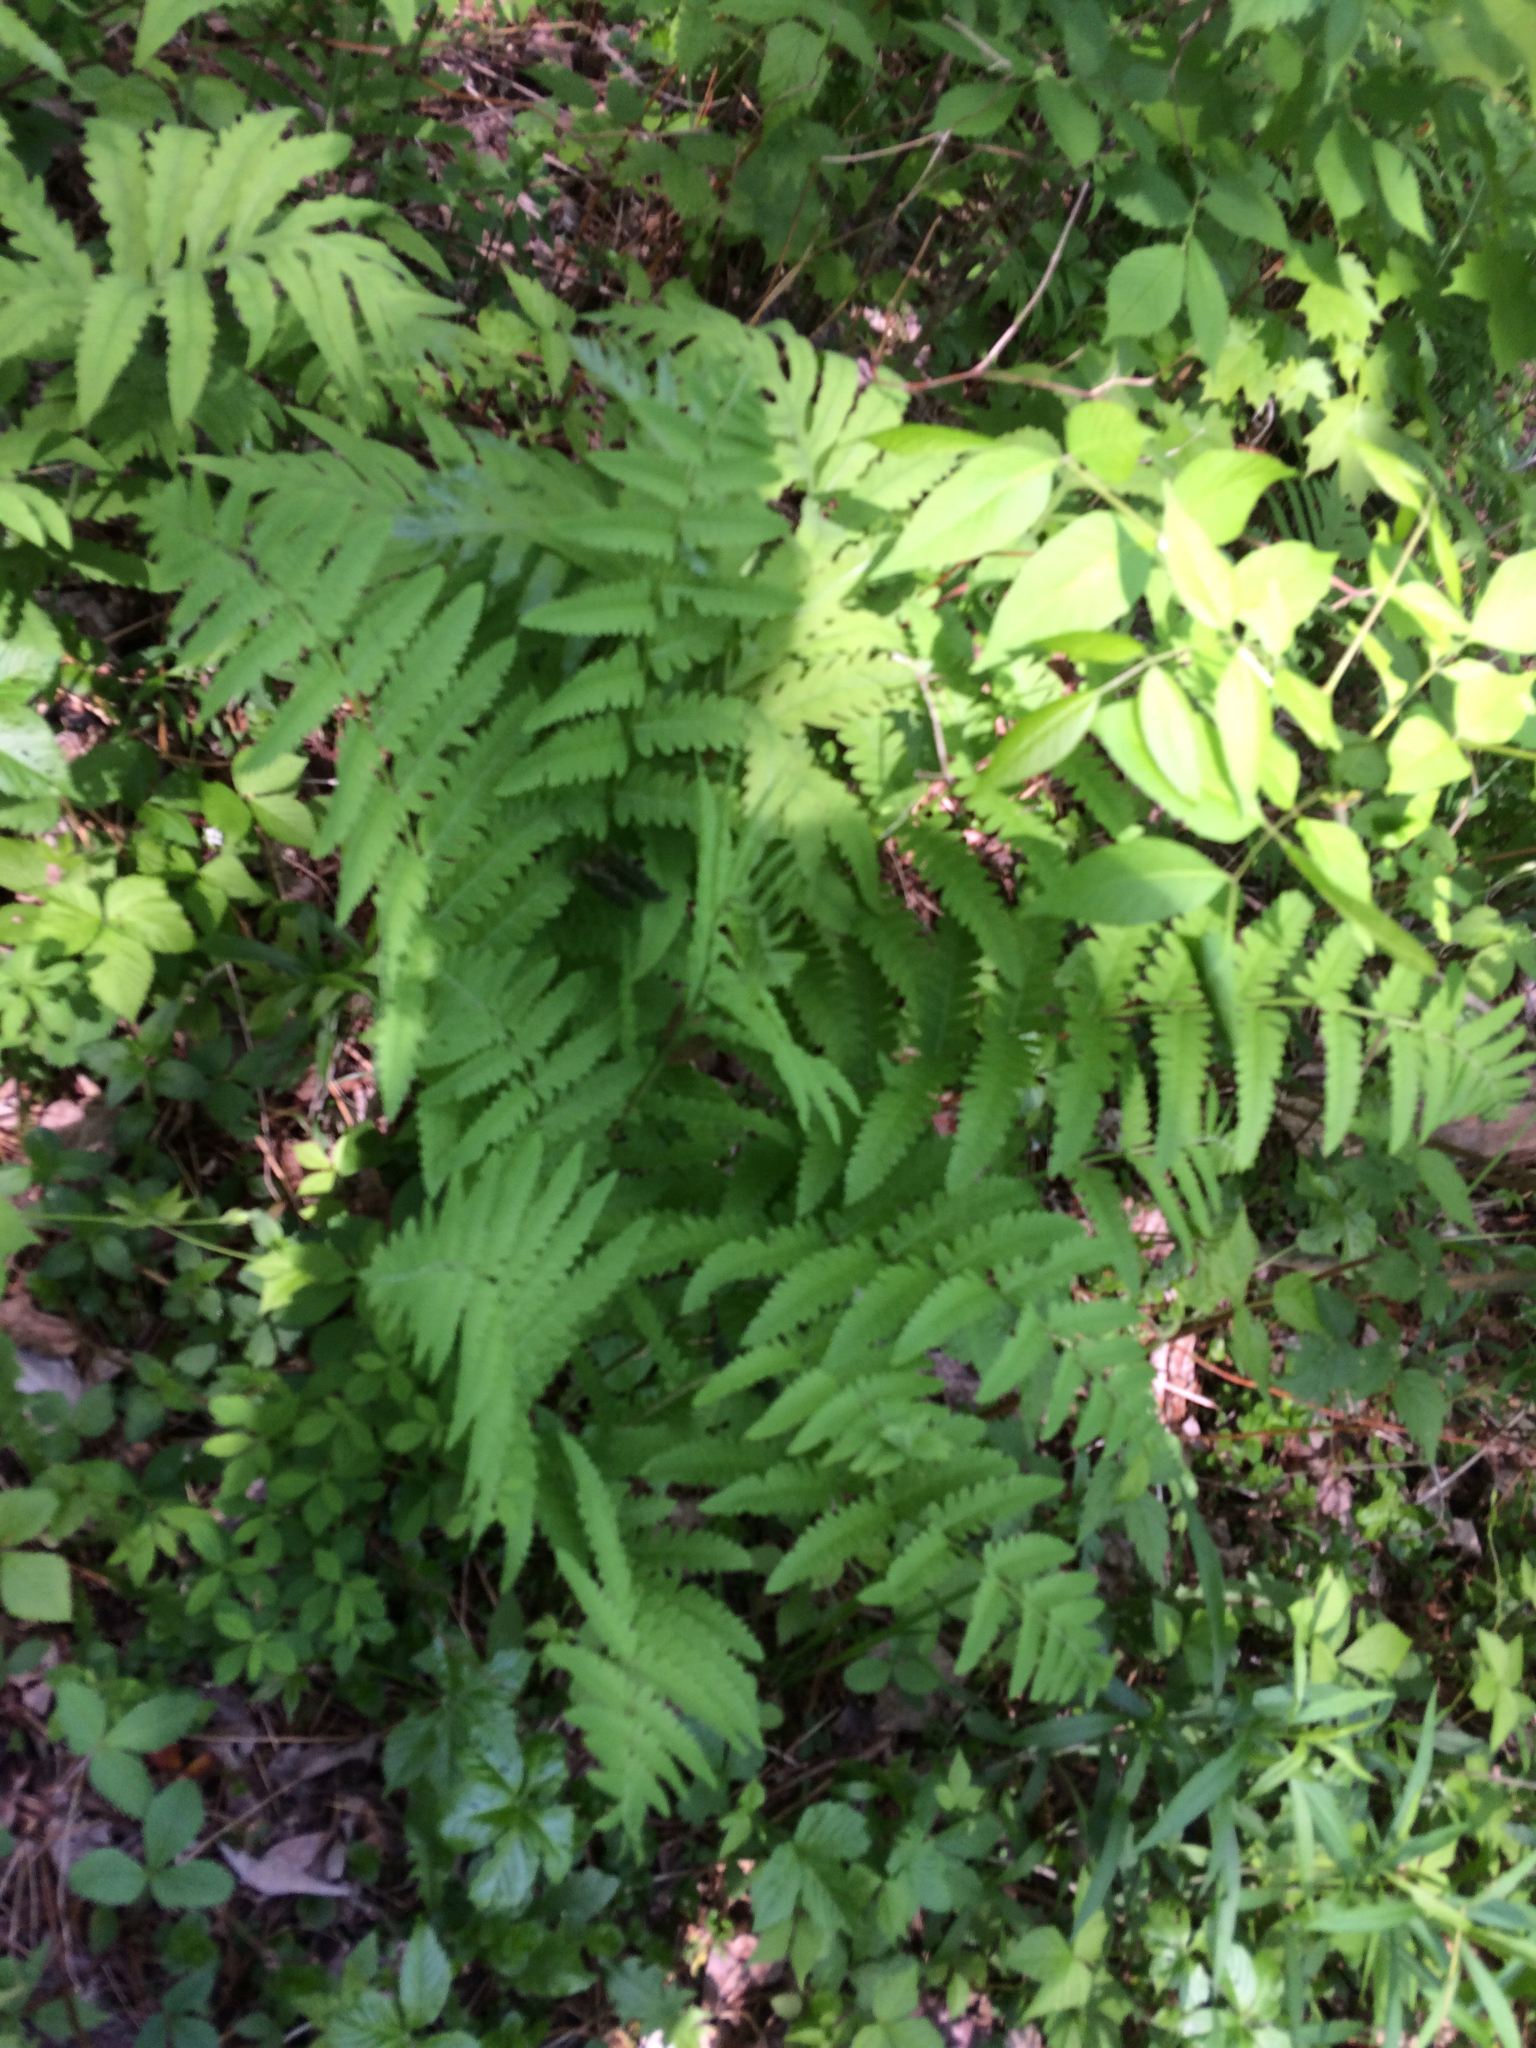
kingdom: Plantae
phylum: Tracheophyta
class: Polypodiopsida
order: Osmundales
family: Osmundaceae
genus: Claytosmunda
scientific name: Claytosmunda claytoniana
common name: Clayton's fern
